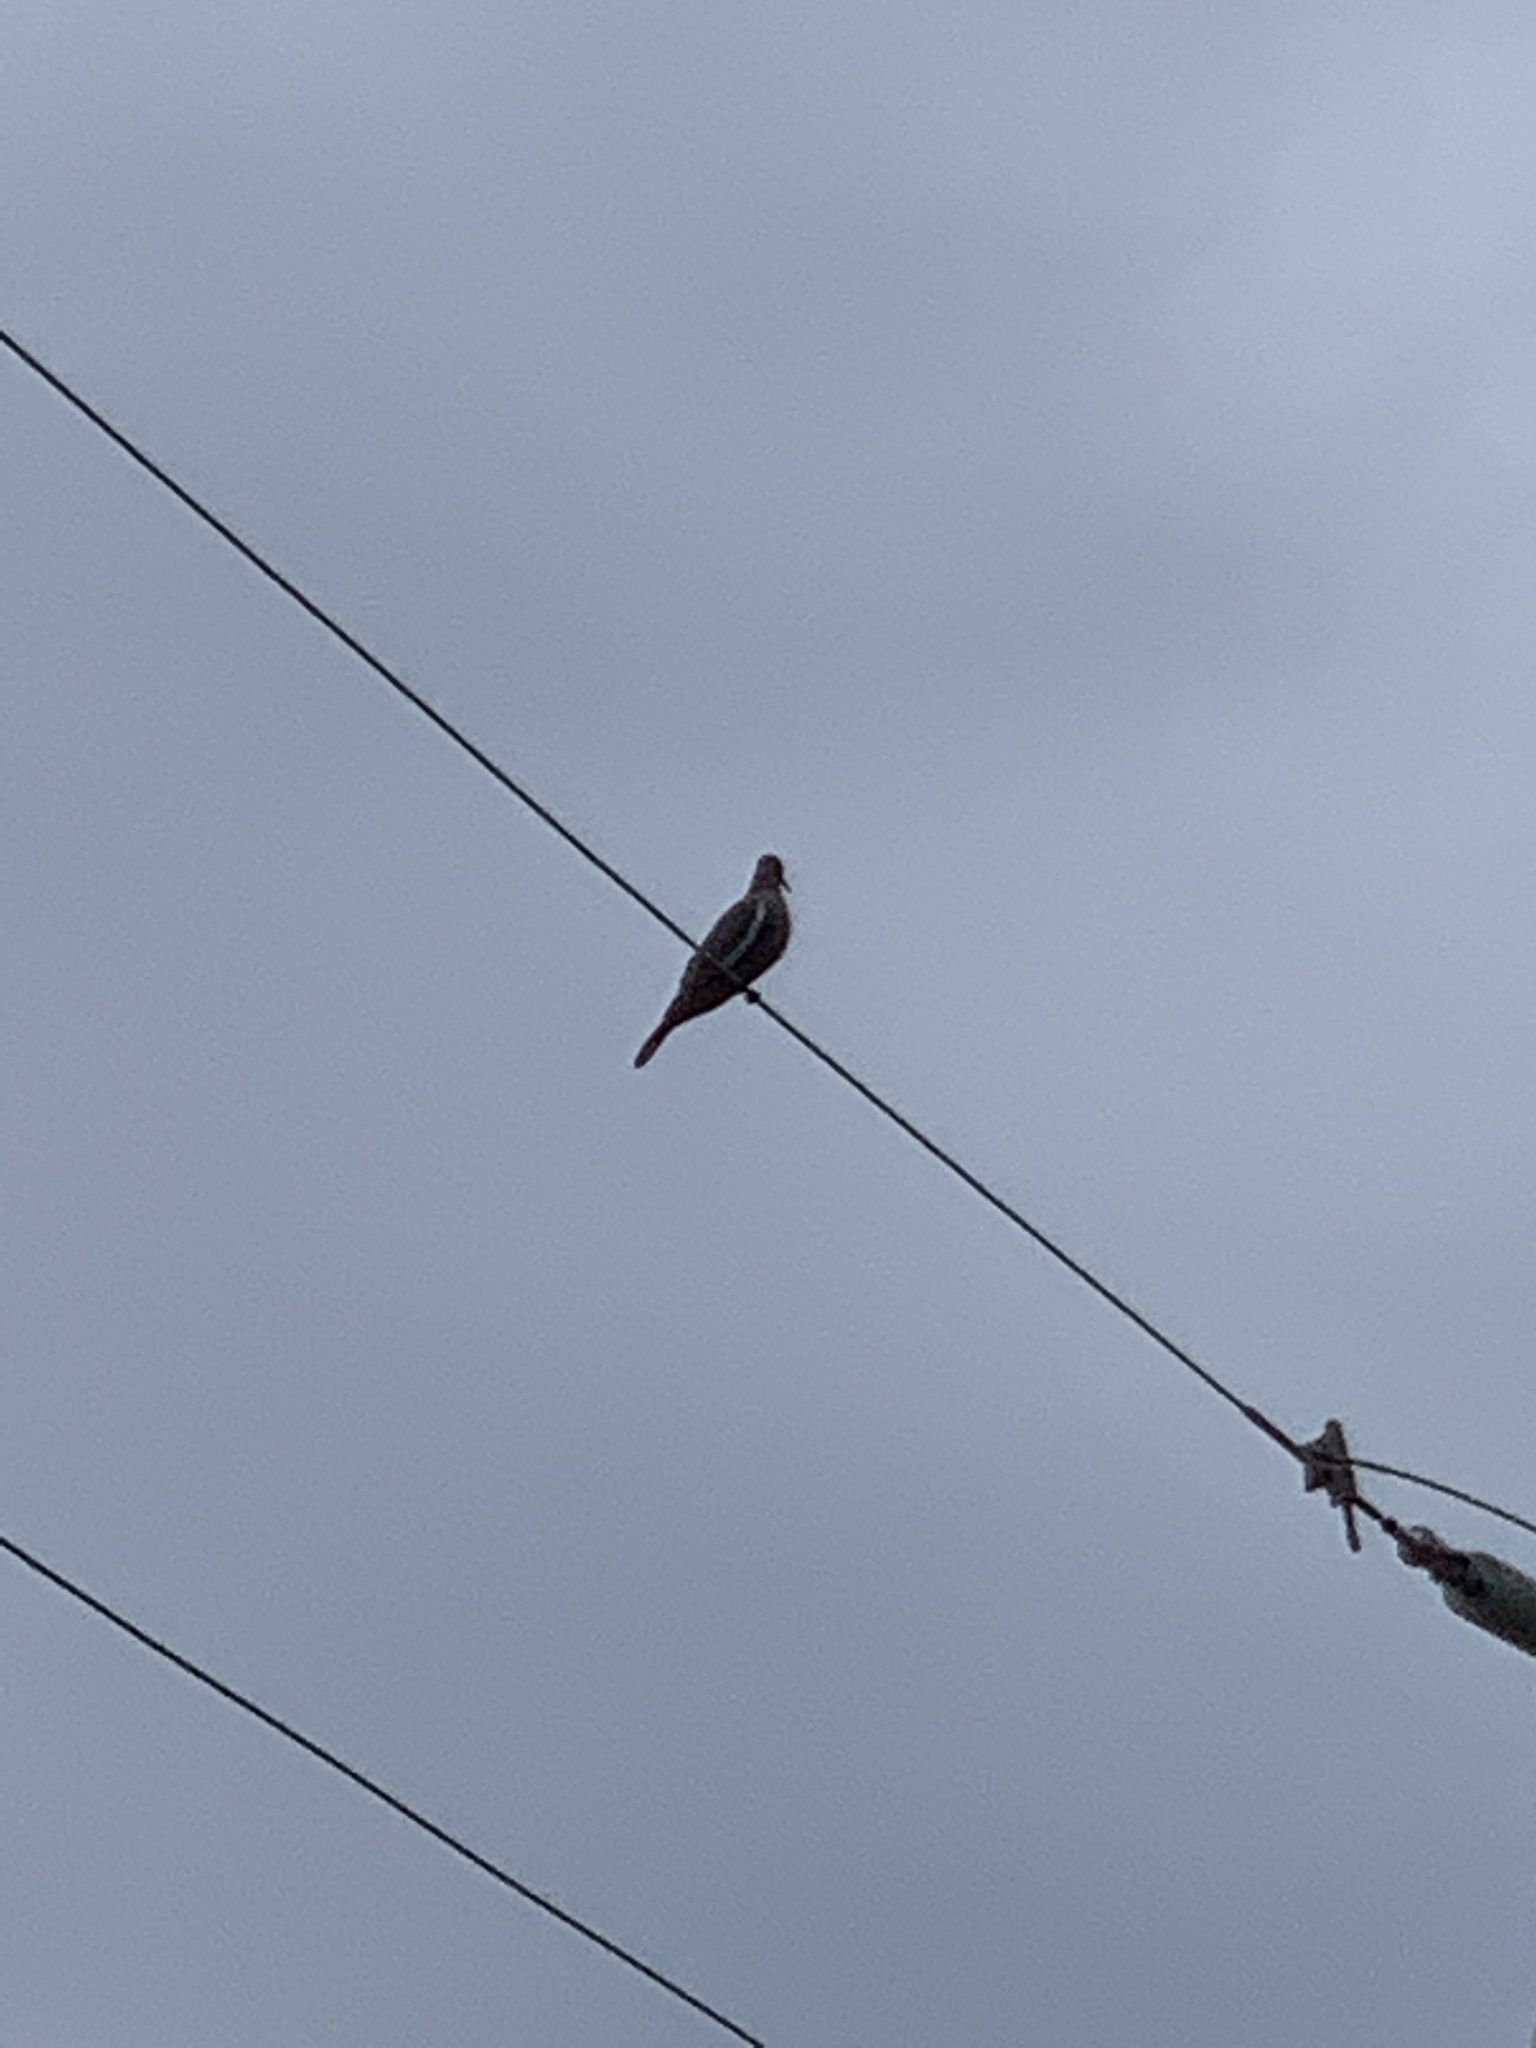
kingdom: Animalia
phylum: Chordata
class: Aves
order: Columbiformes
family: Columbidae
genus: Zenaida
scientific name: Zenaida asiatica
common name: White-winged dove
